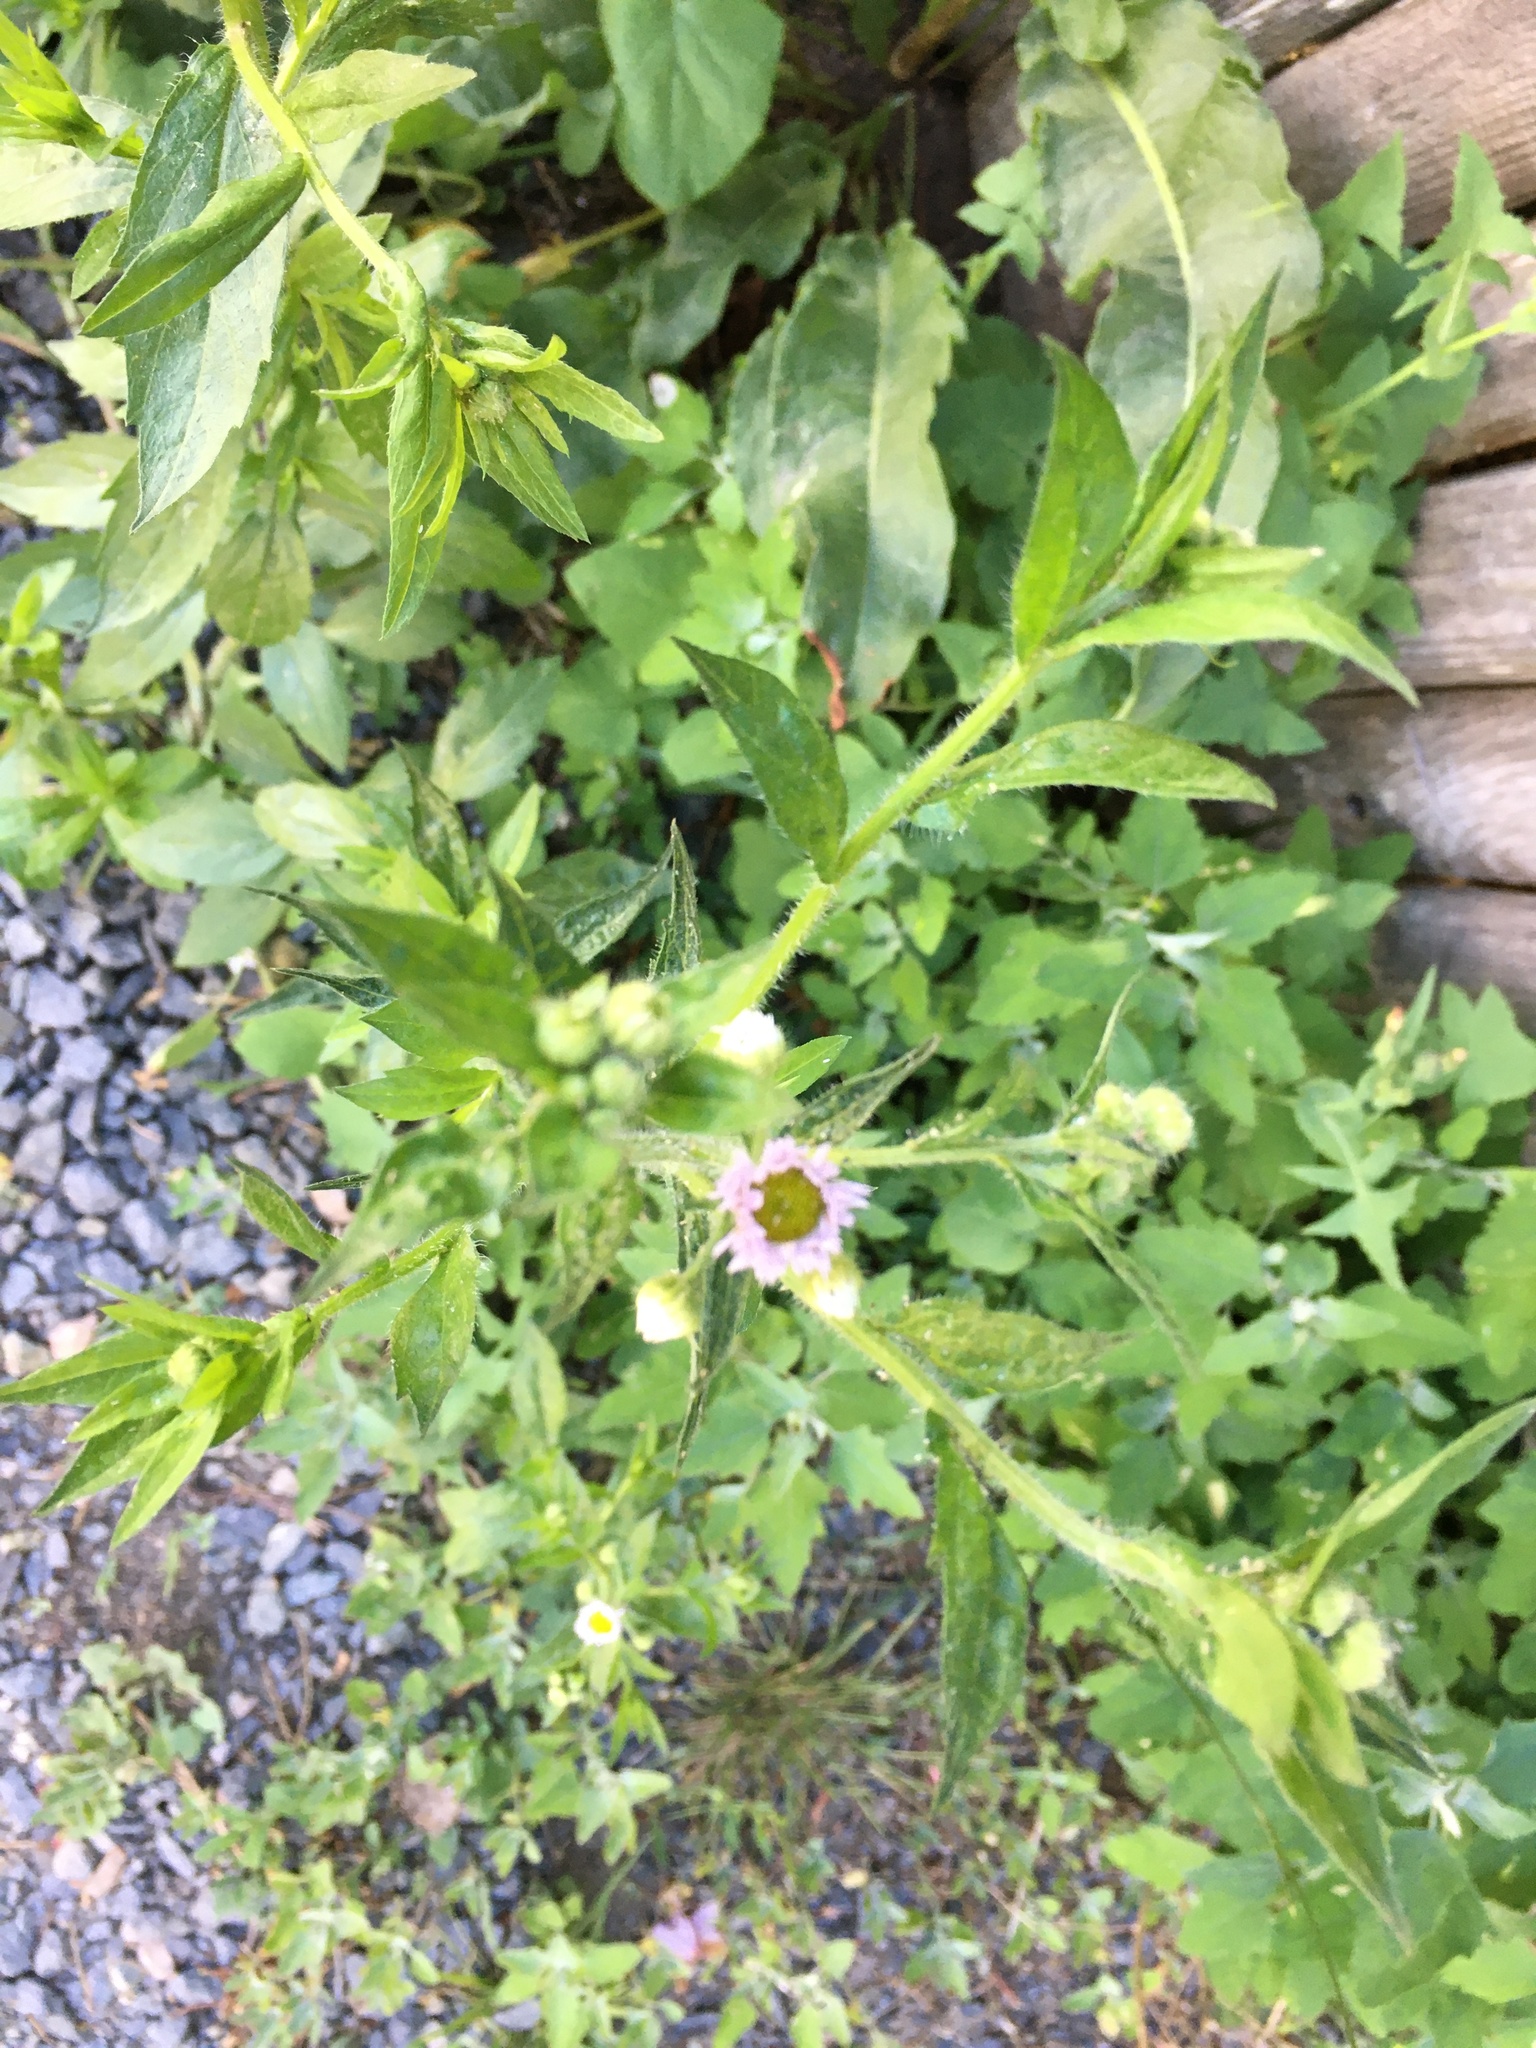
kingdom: Plantae
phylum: Tracheophyta
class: Magnoliopsida
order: Asterales
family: Asteraceae
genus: Erigeron
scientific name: Erigeron annuus
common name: Tall fleabane
